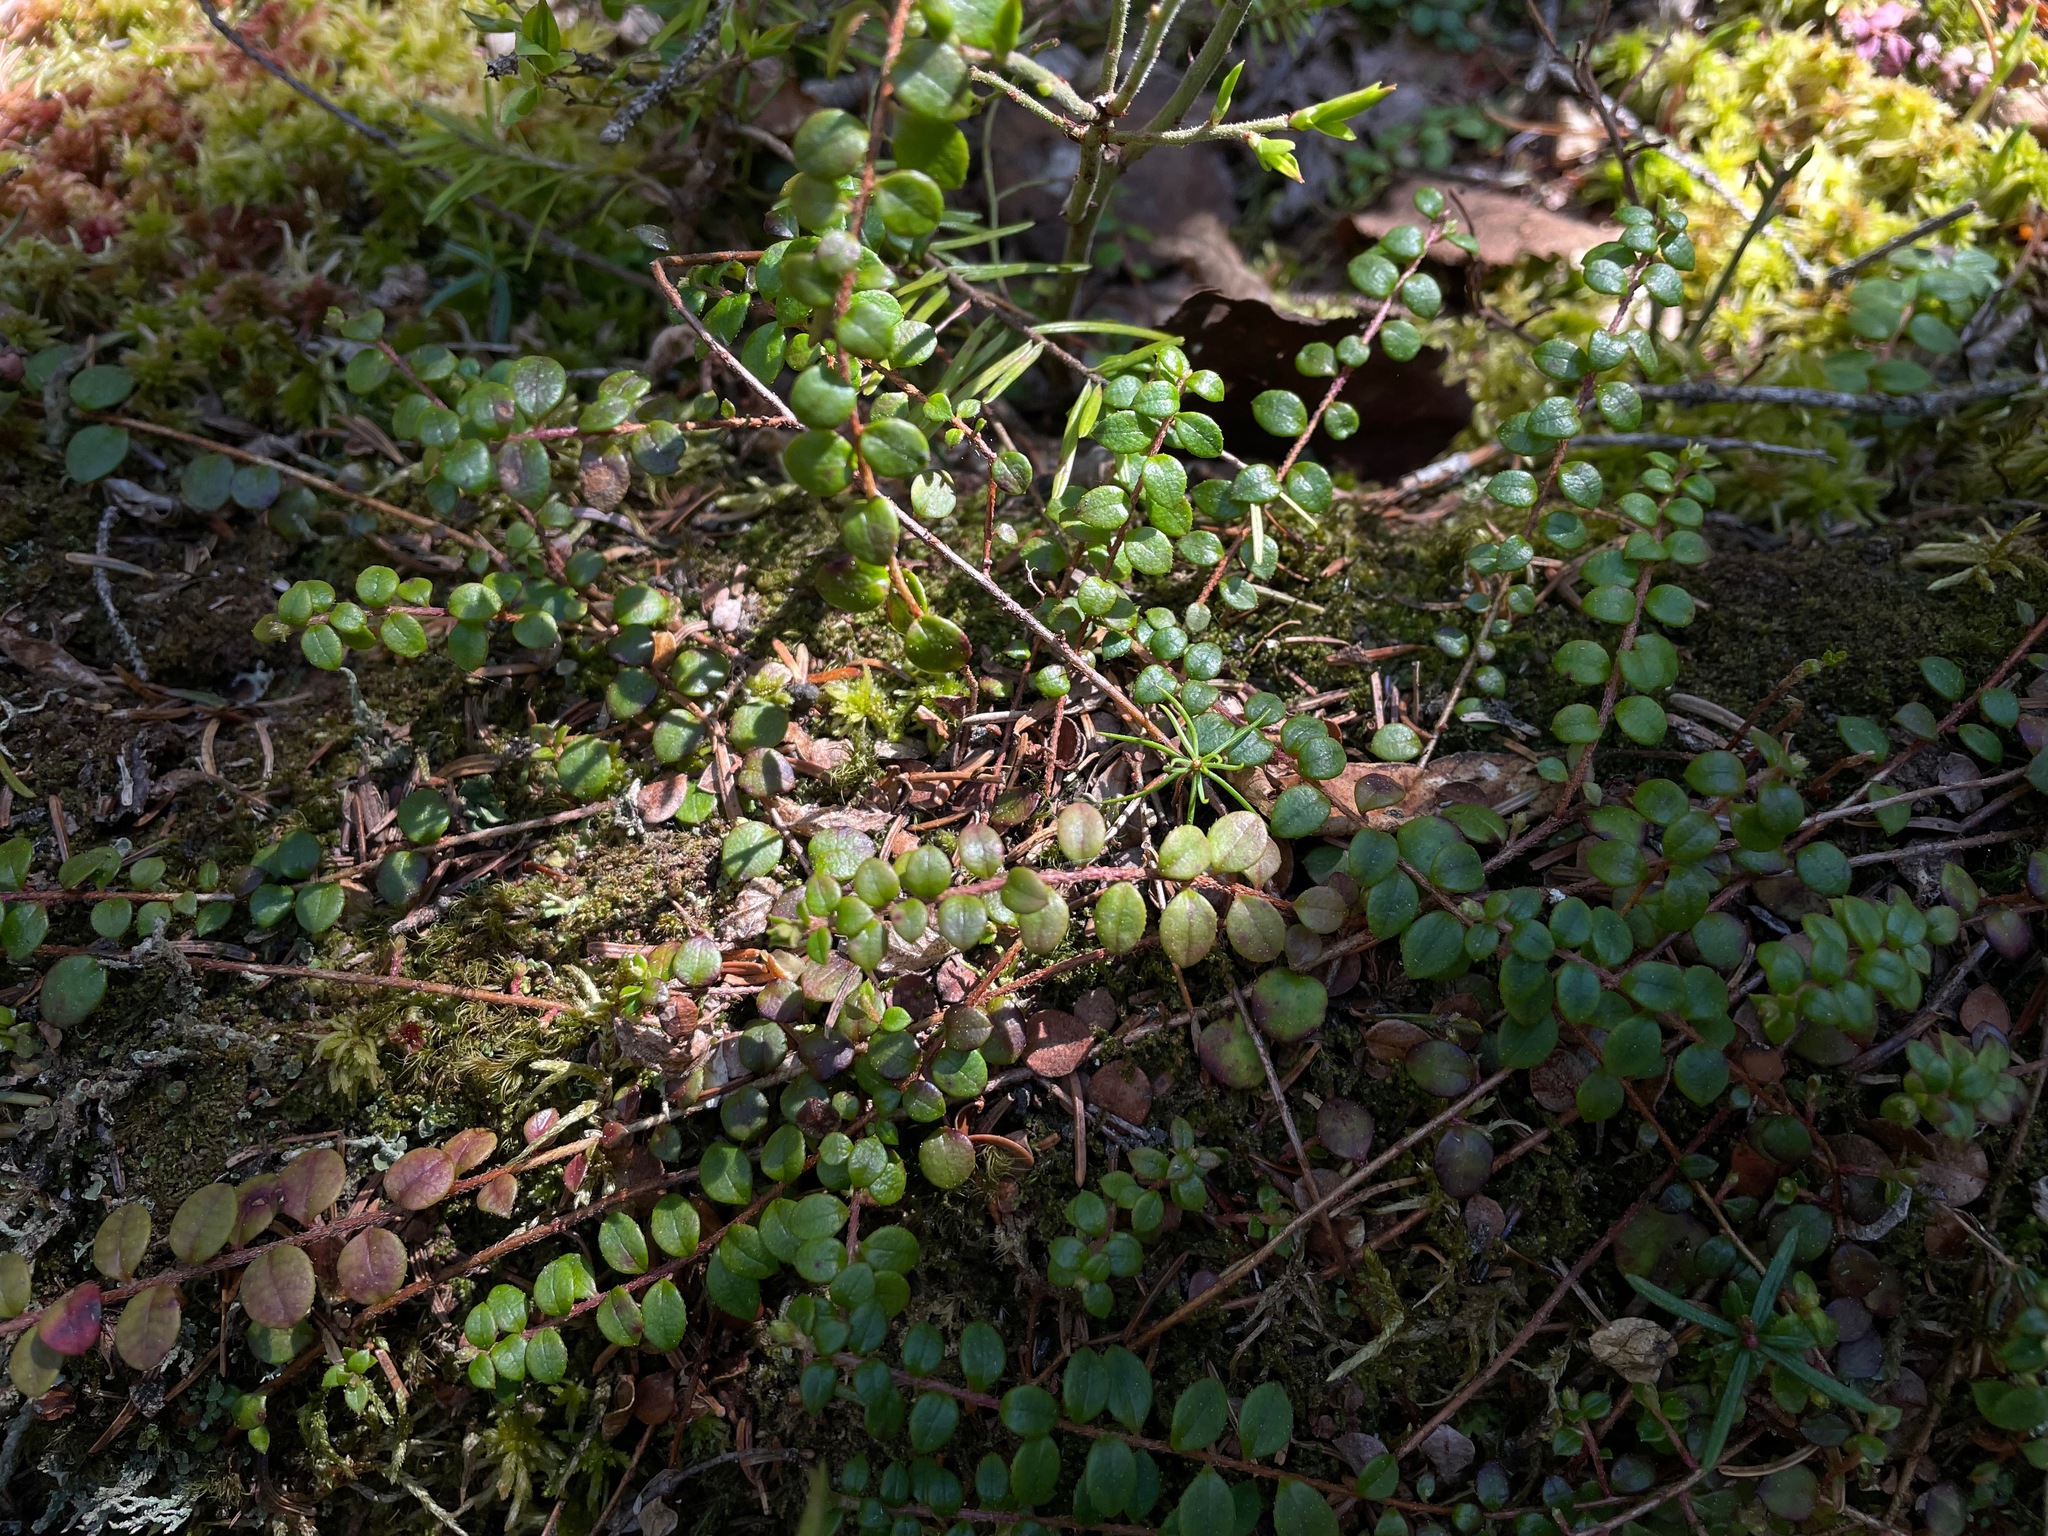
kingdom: Plantae
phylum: Tracheophyta
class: Magnoliopsida
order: Ericales
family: Ericaceae
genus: Gaultheria
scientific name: Gaultheria hispidula
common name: Cancer wintergreen
